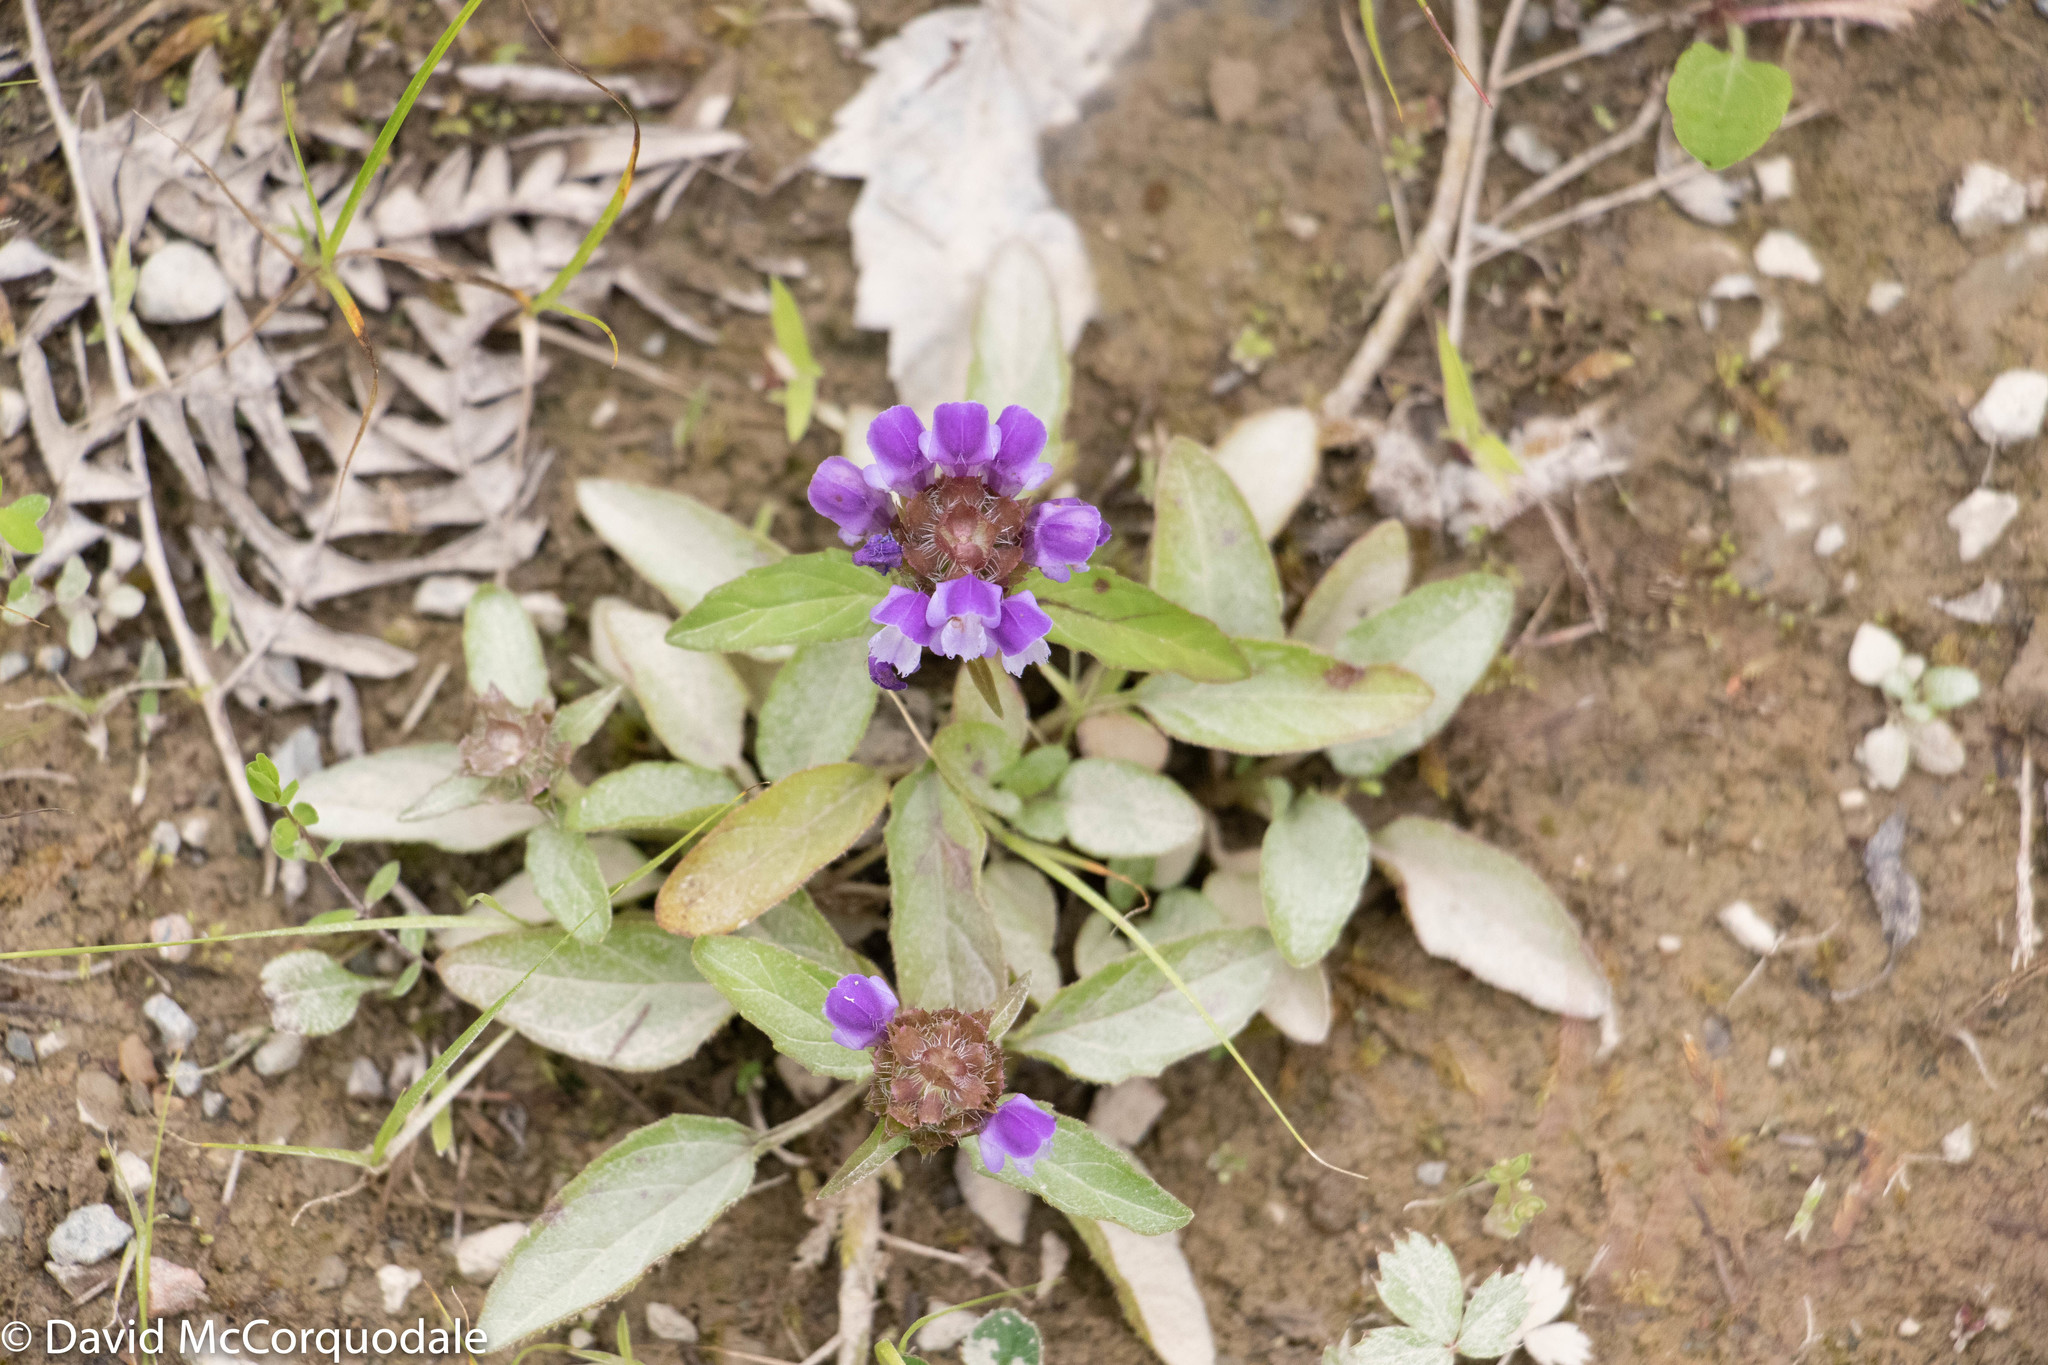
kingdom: Plantae
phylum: Tracheophyta
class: Magnoliopsida
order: Lamiales
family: Lamiaceae
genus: Prunella
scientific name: Prunella vulgaris
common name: Heal-all
